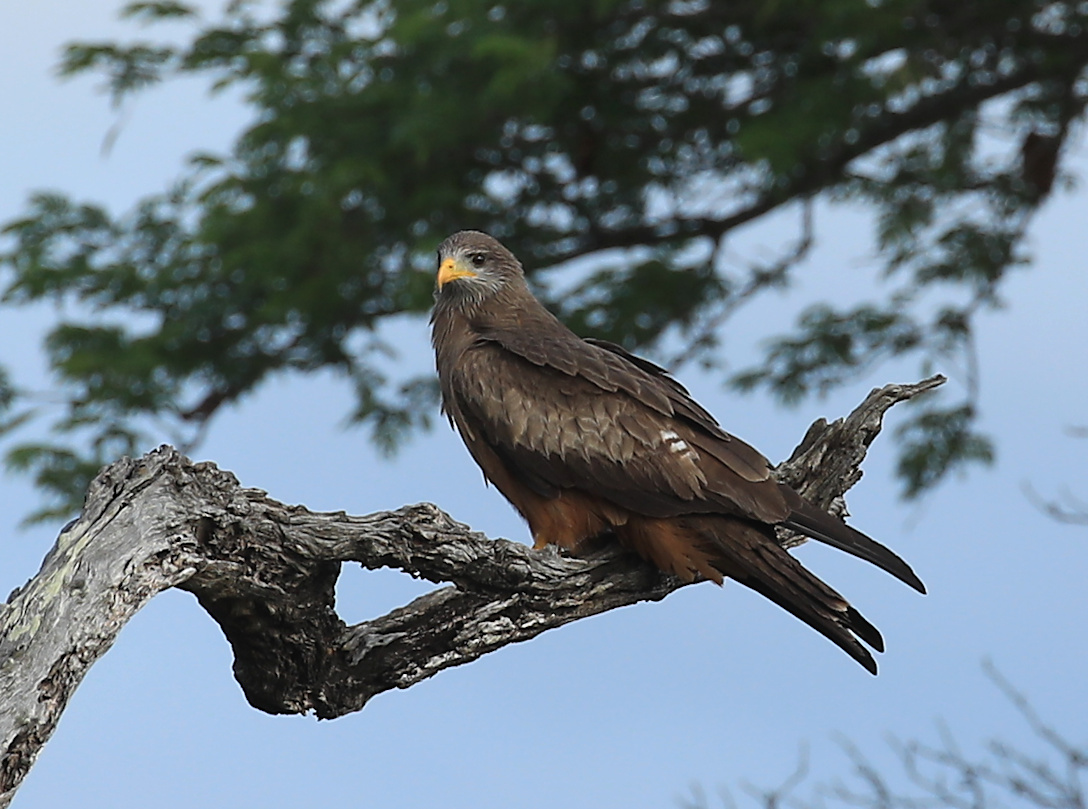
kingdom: Animalia
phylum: Chordata
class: Aves
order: Accipitriformes
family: Accipitridae
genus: Milvus
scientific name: Milvus migrans
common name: Black kite
